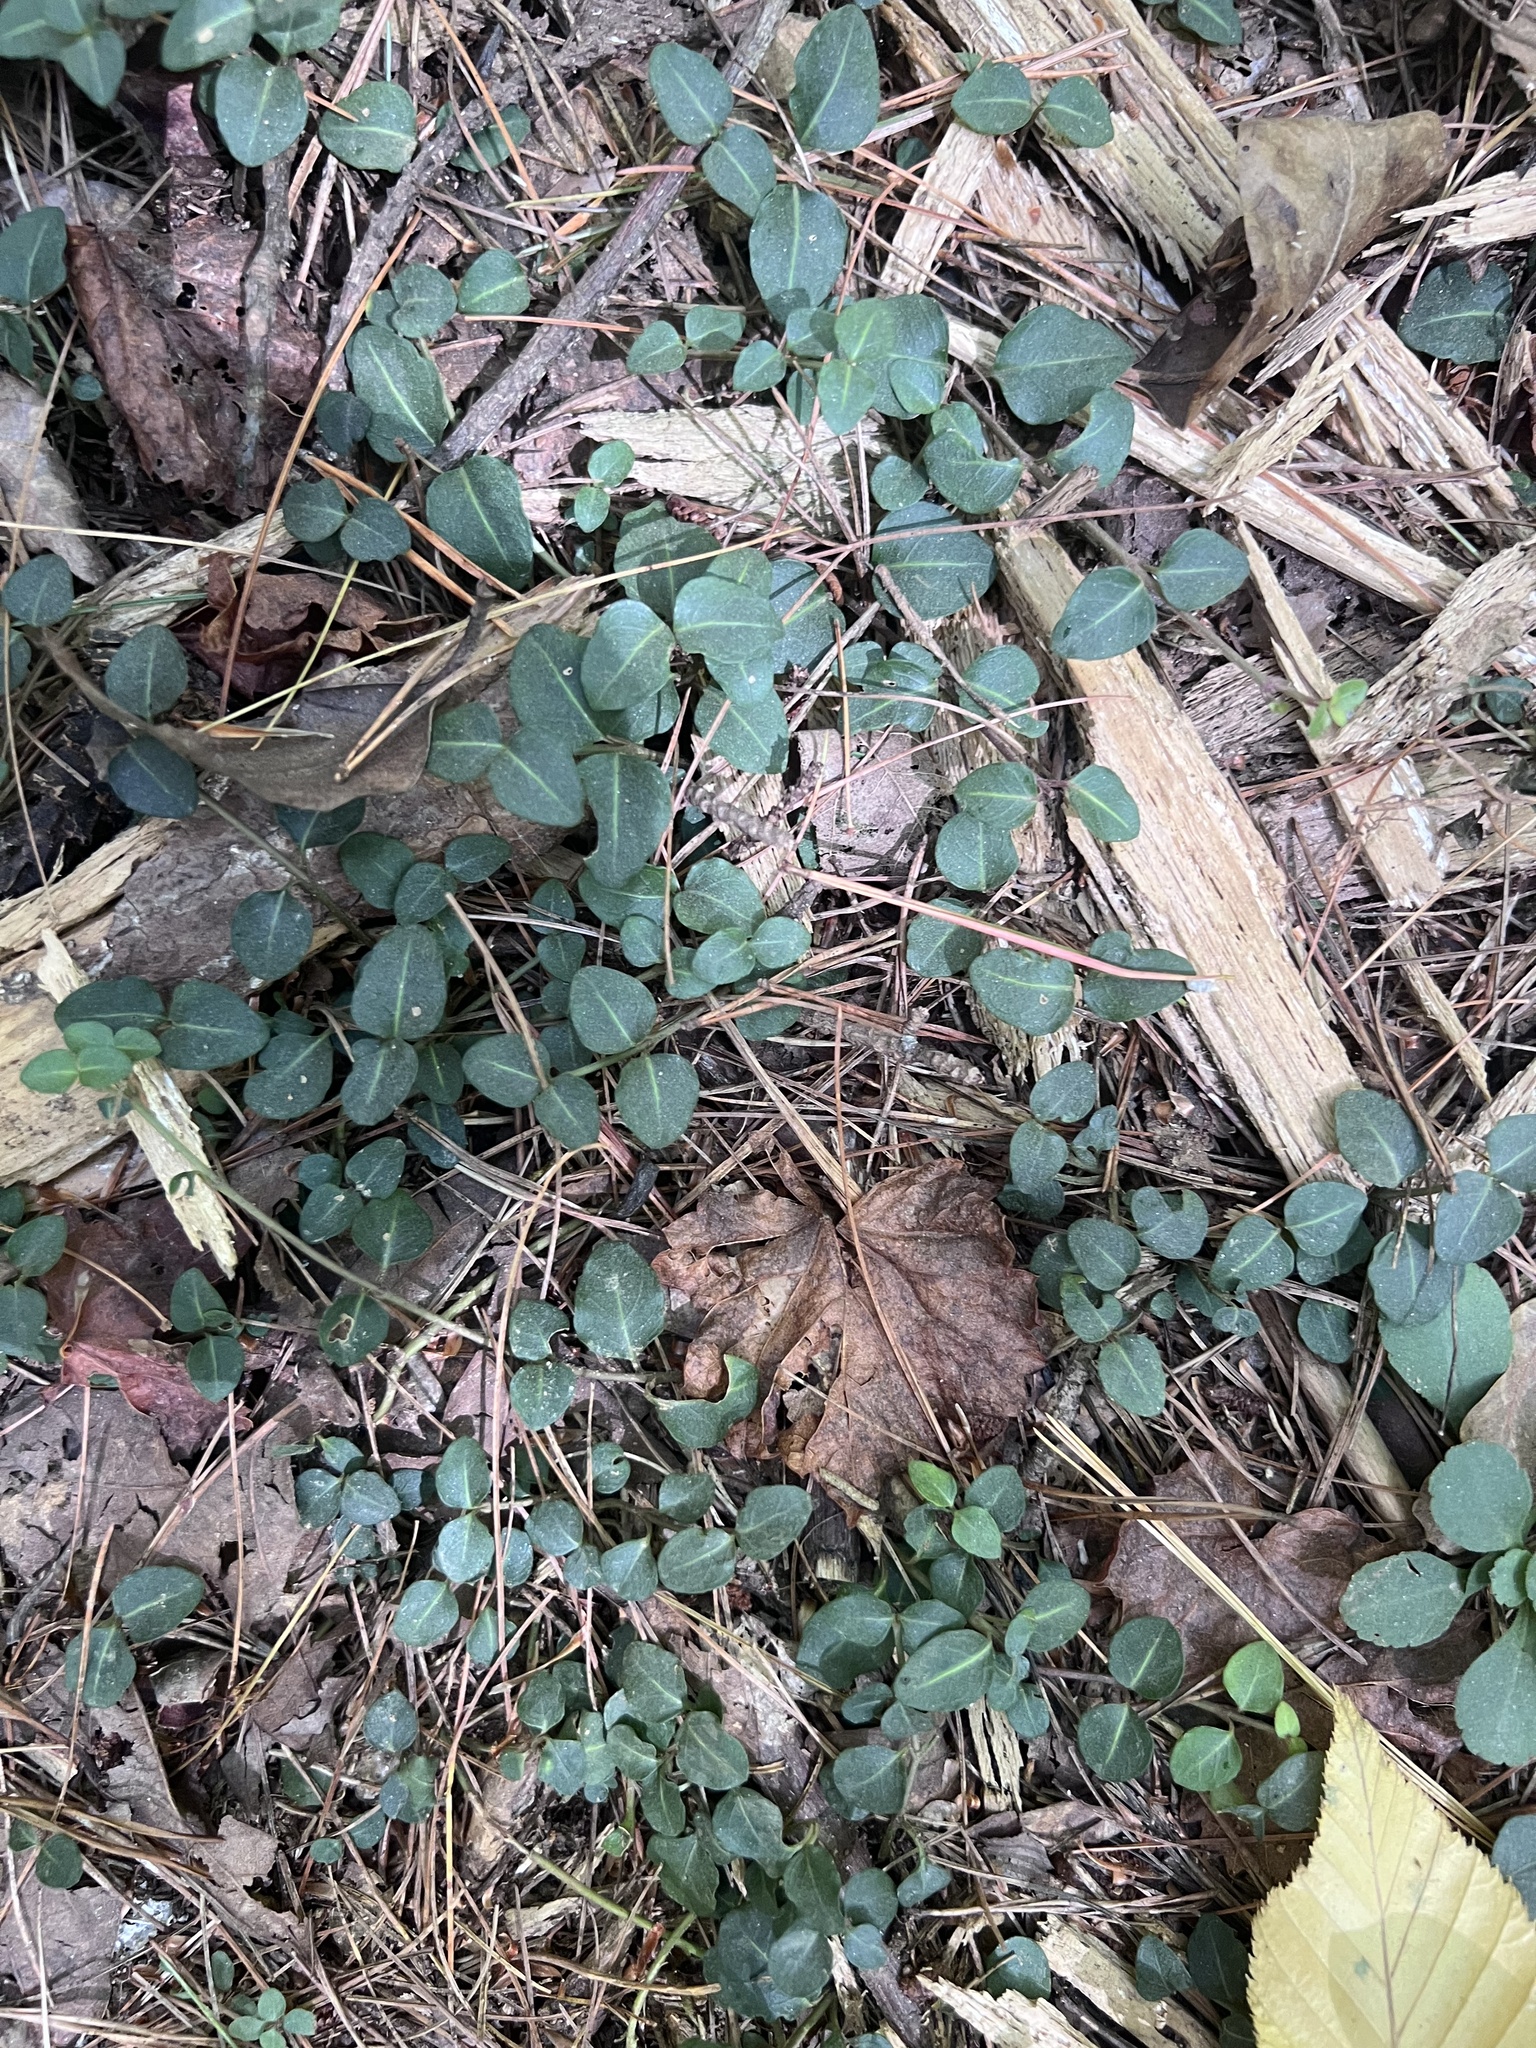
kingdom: Plantae
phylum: Tracheophyta
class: Magnoliopsida
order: Gentianales
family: Rubiaceae
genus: Mitchella
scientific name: Mitchella repens
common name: Partridge-berry
